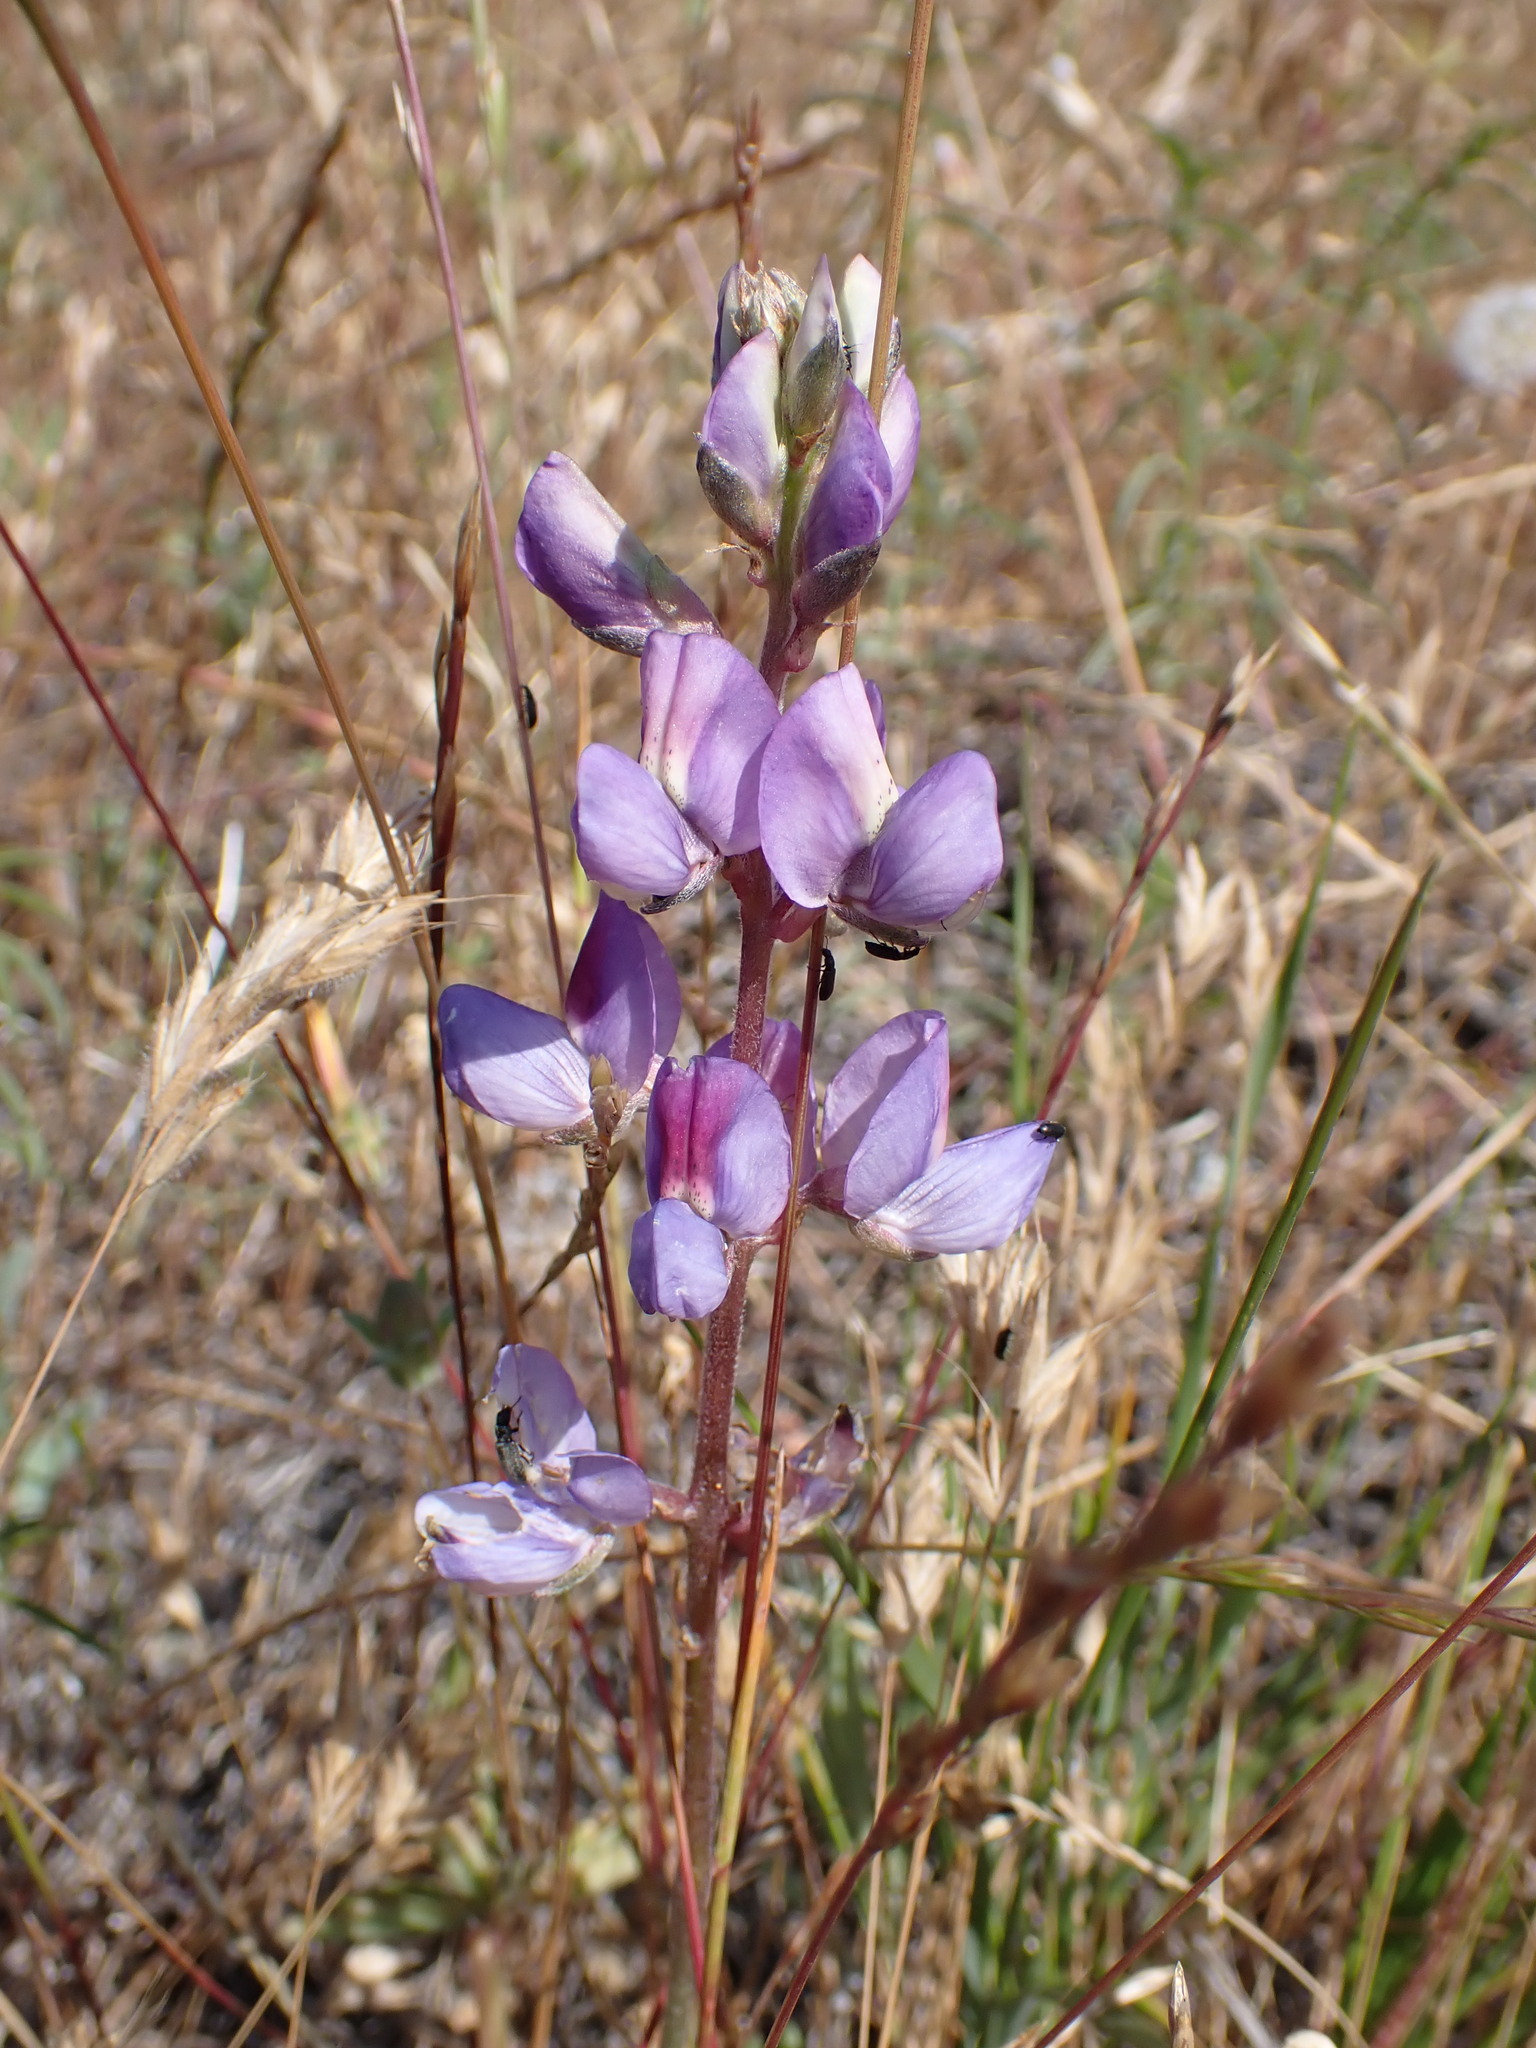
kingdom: Plantae
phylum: Tracheophyta
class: Magnoliopsida
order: Fabales
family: Fabaceae
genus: Lupinus
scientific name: Lupinus succulentus
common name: Arroyo lupine
